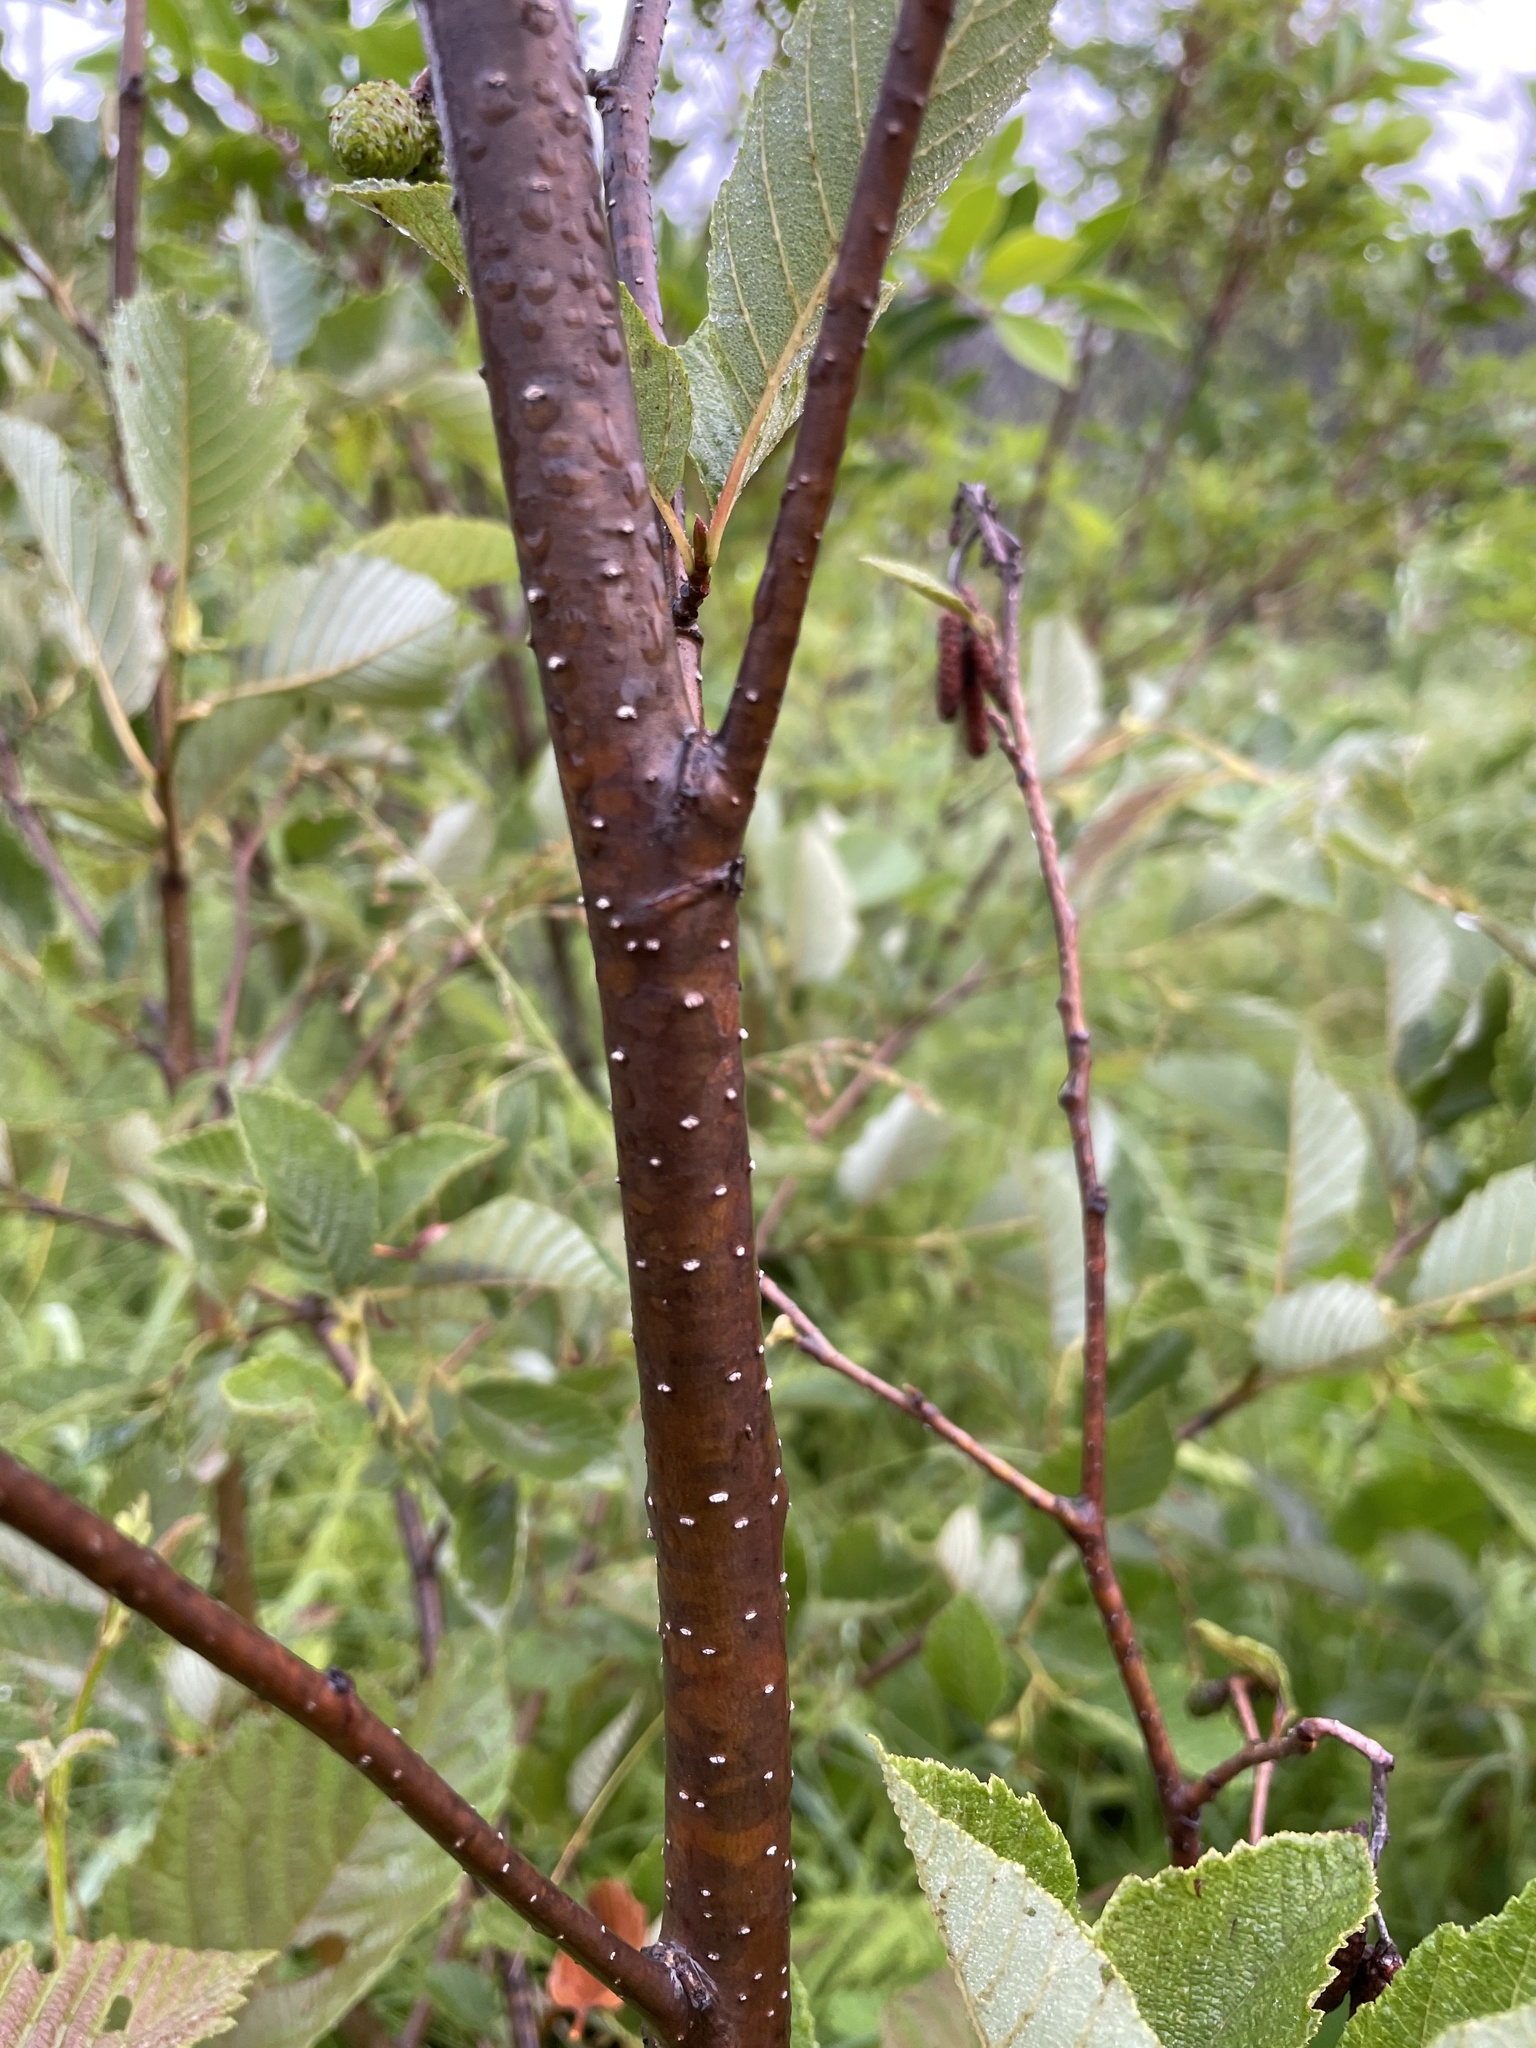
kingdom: Plantae
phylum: Tracheophyta
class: Magnoliopsida
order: Fagales
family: Betulaceae
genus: Alnus
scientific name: Alnus incana
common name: Grey alder
